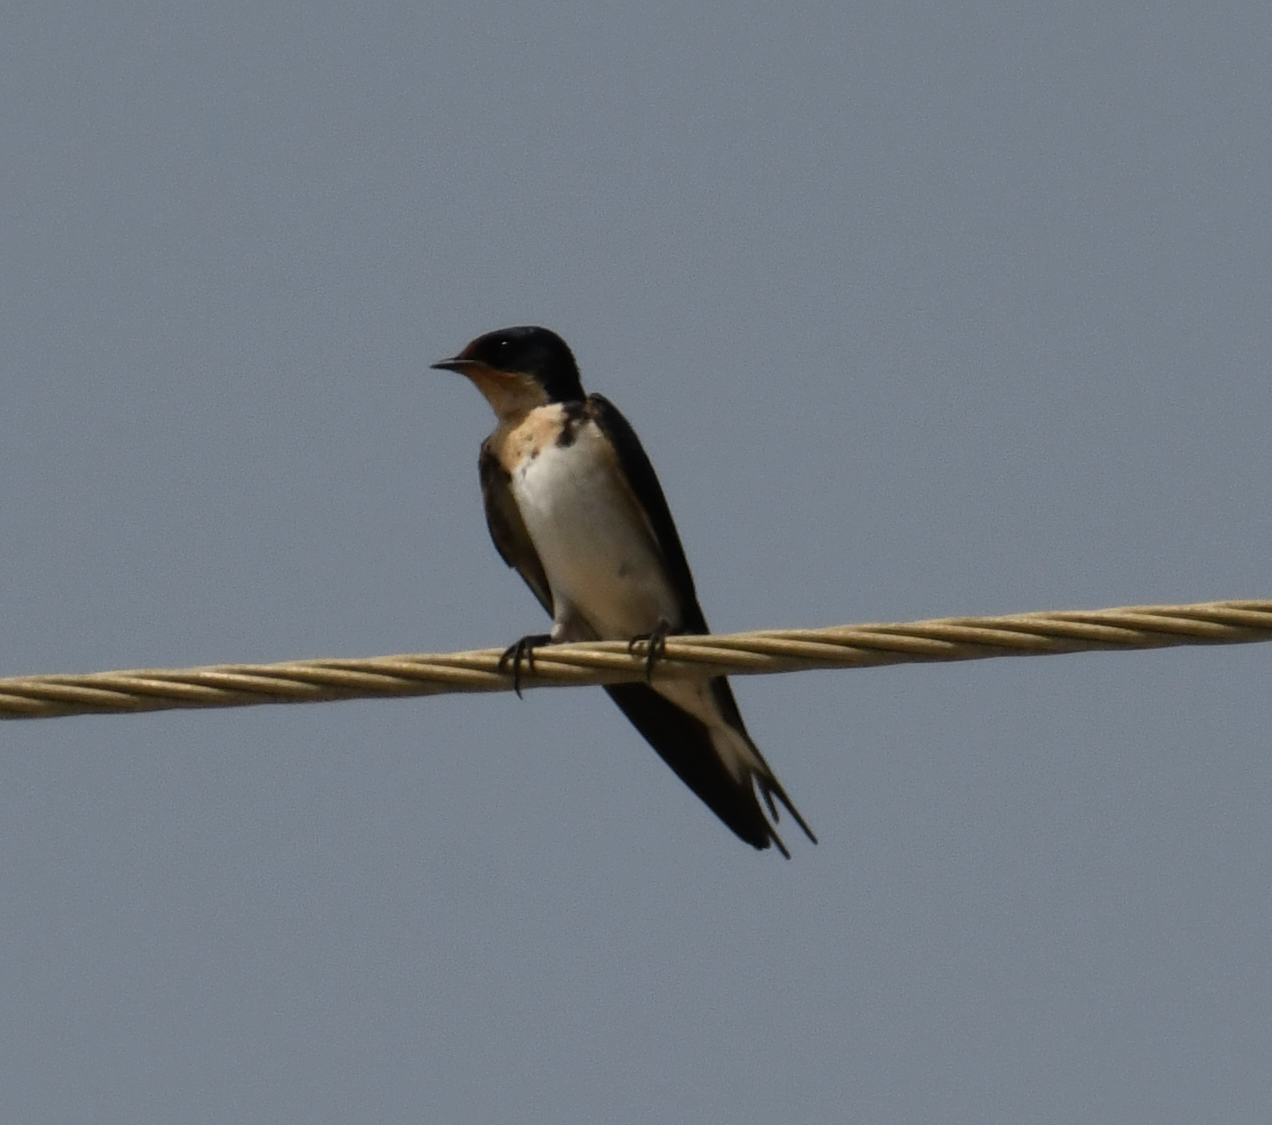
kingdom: Animalia
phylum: Chordata
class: Aves
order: Passeriformes
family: Hirundinidae
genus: Hirundo
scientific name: Hirundo aethiopica
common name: Ethiopian swallow
